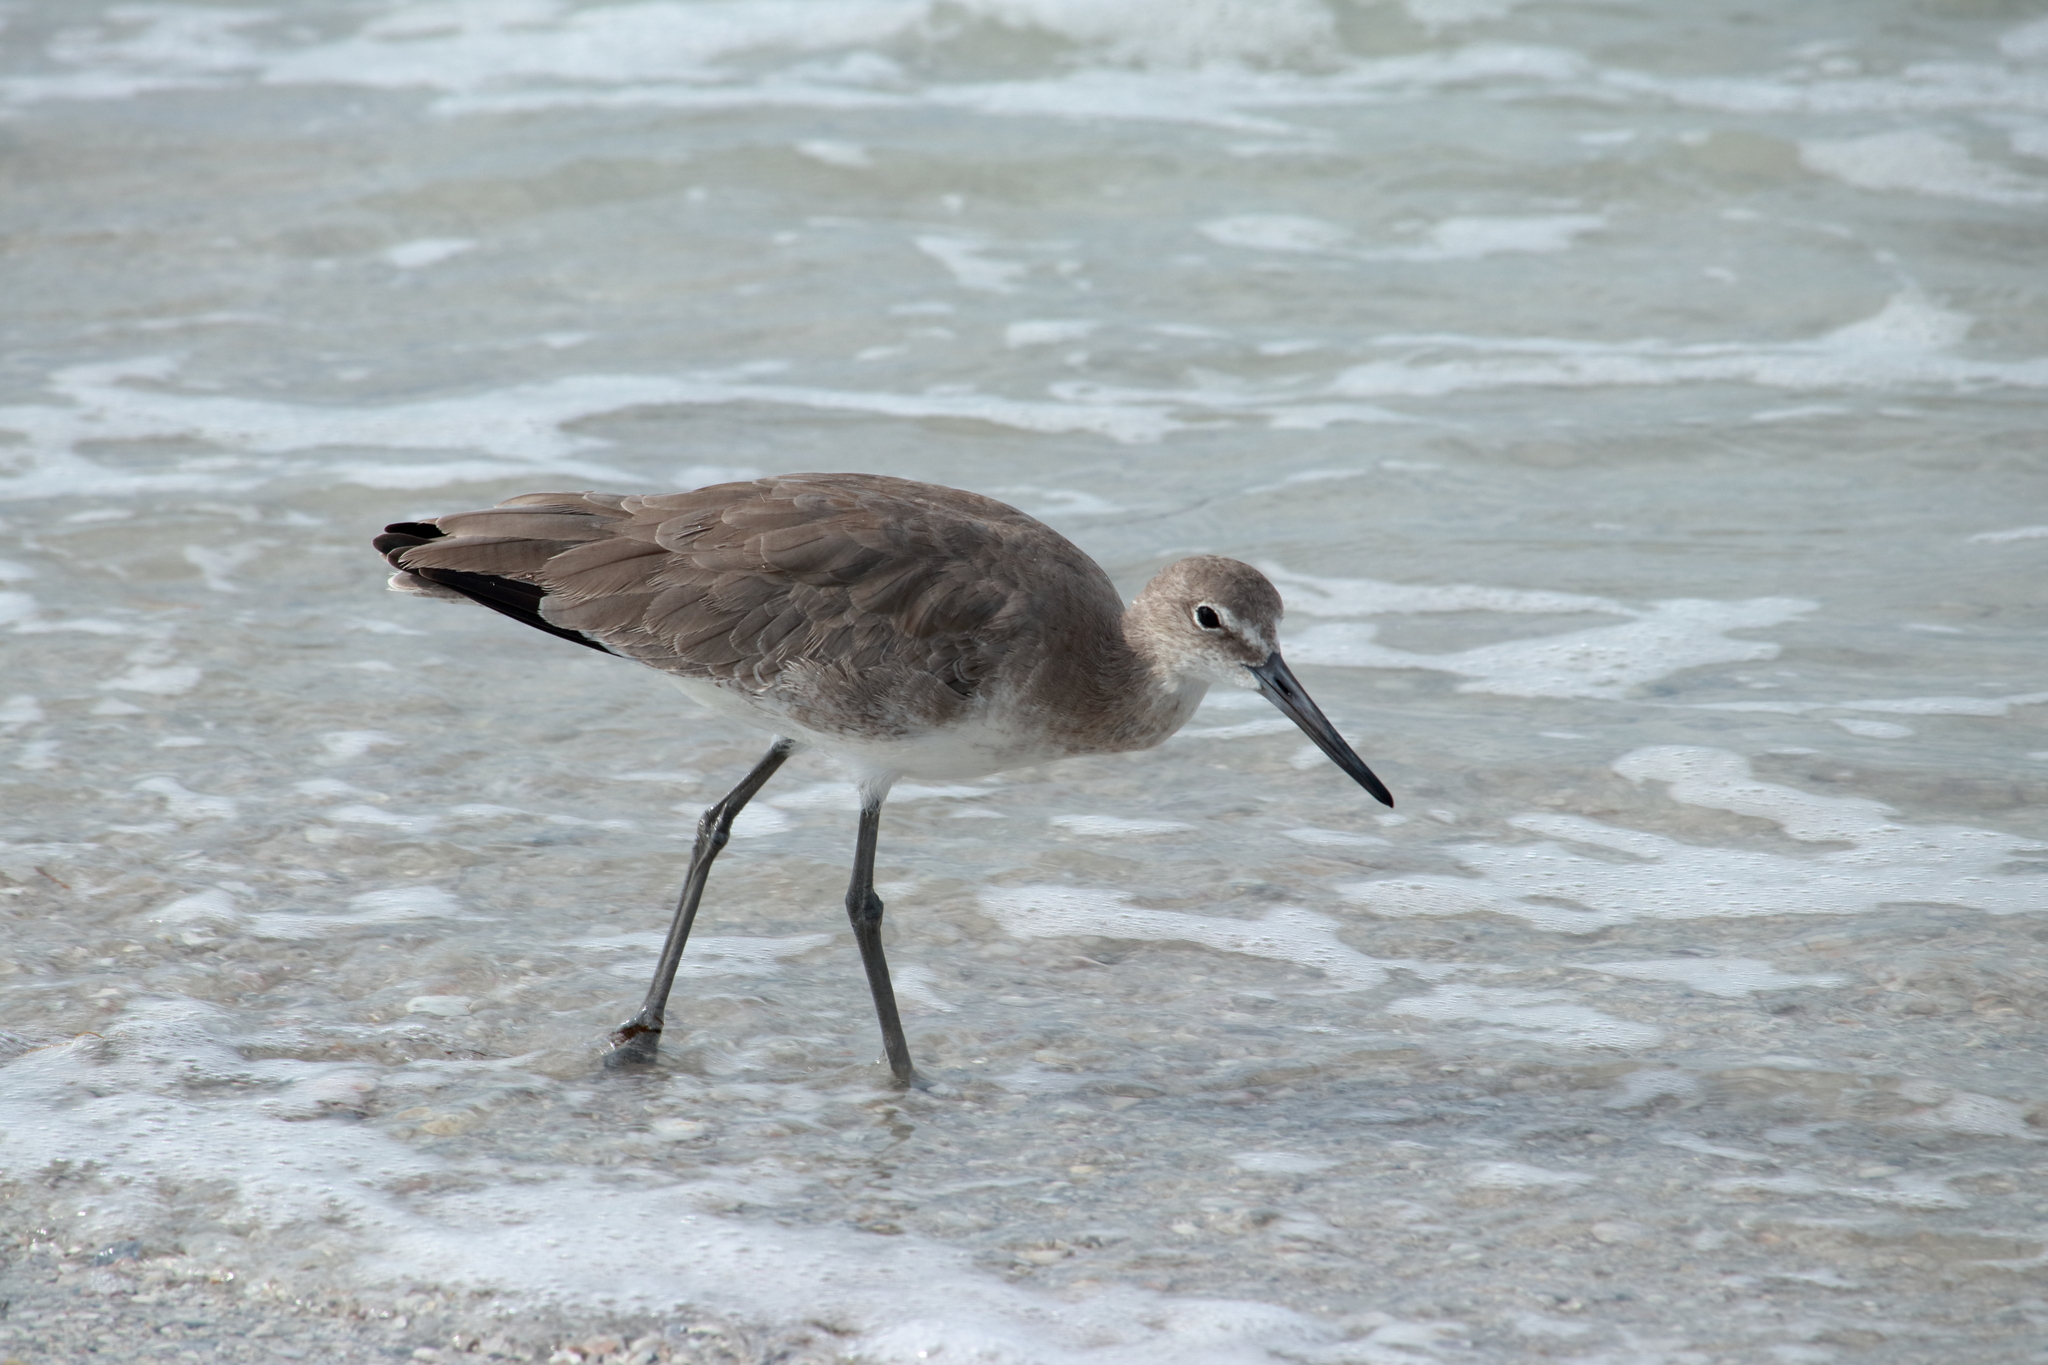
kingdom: Animalia
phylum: Chordata
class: Aves
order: Charadriiformes
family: Scolopacidae
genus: Tringa
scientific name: Tringa semipalmata
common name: Willet
